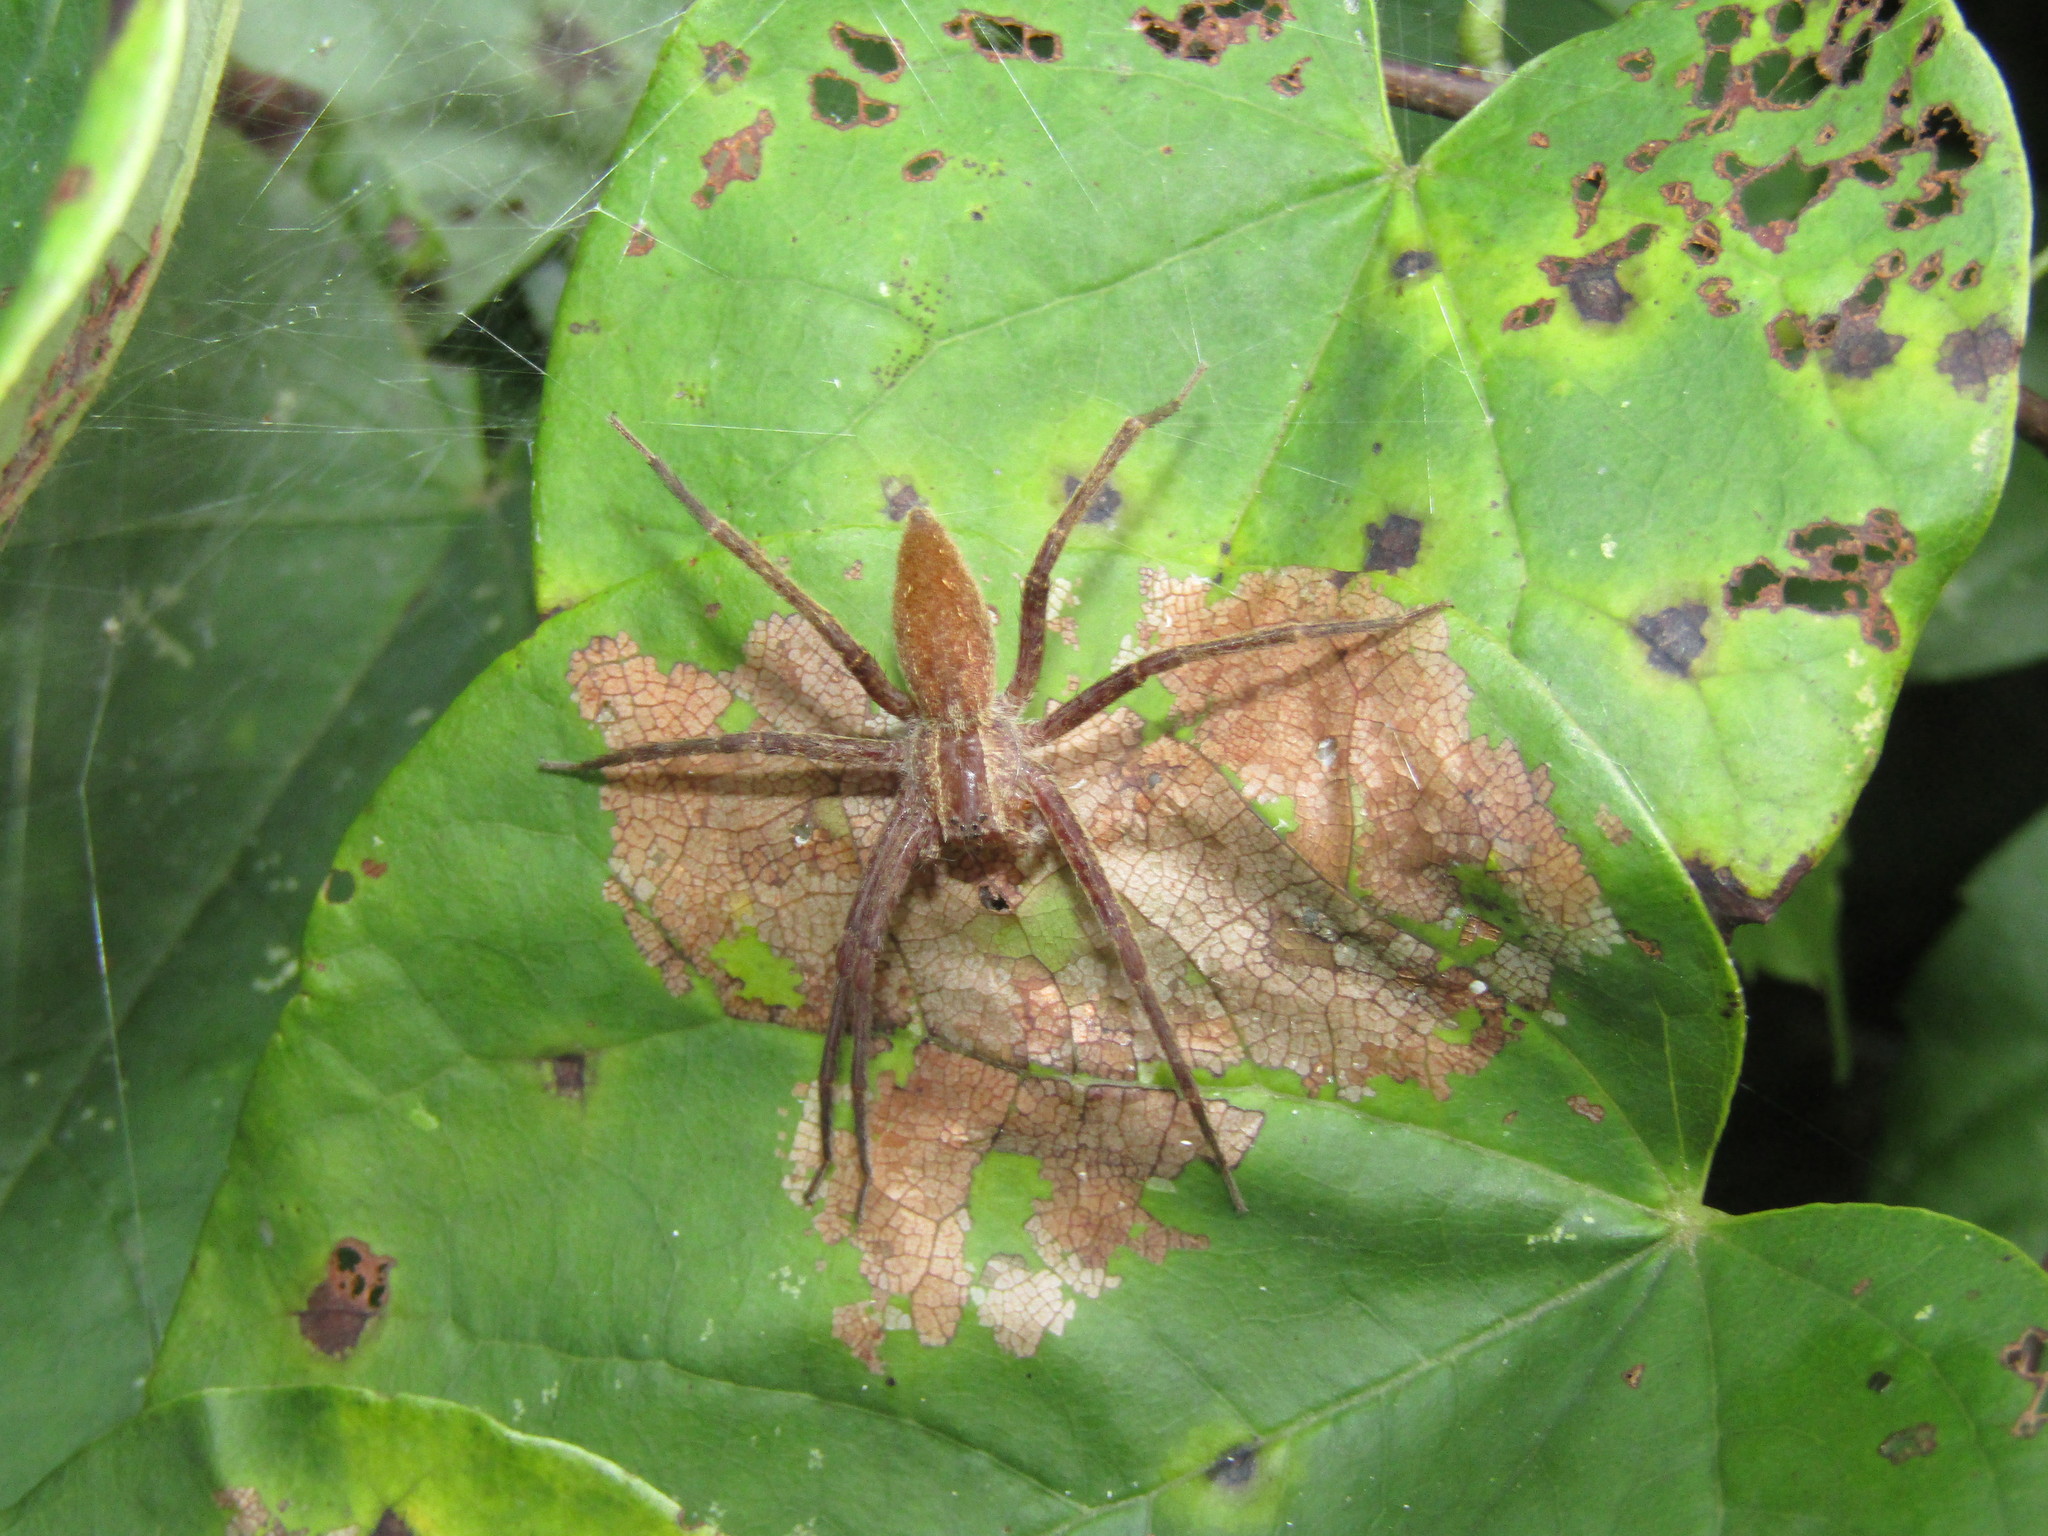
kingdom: Animalia
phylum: Arthropoda
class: Arachnida
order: Araneae
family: Pisauridae
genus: Pisaurina
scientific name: Pisaurina mira
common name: American nursery web spider
